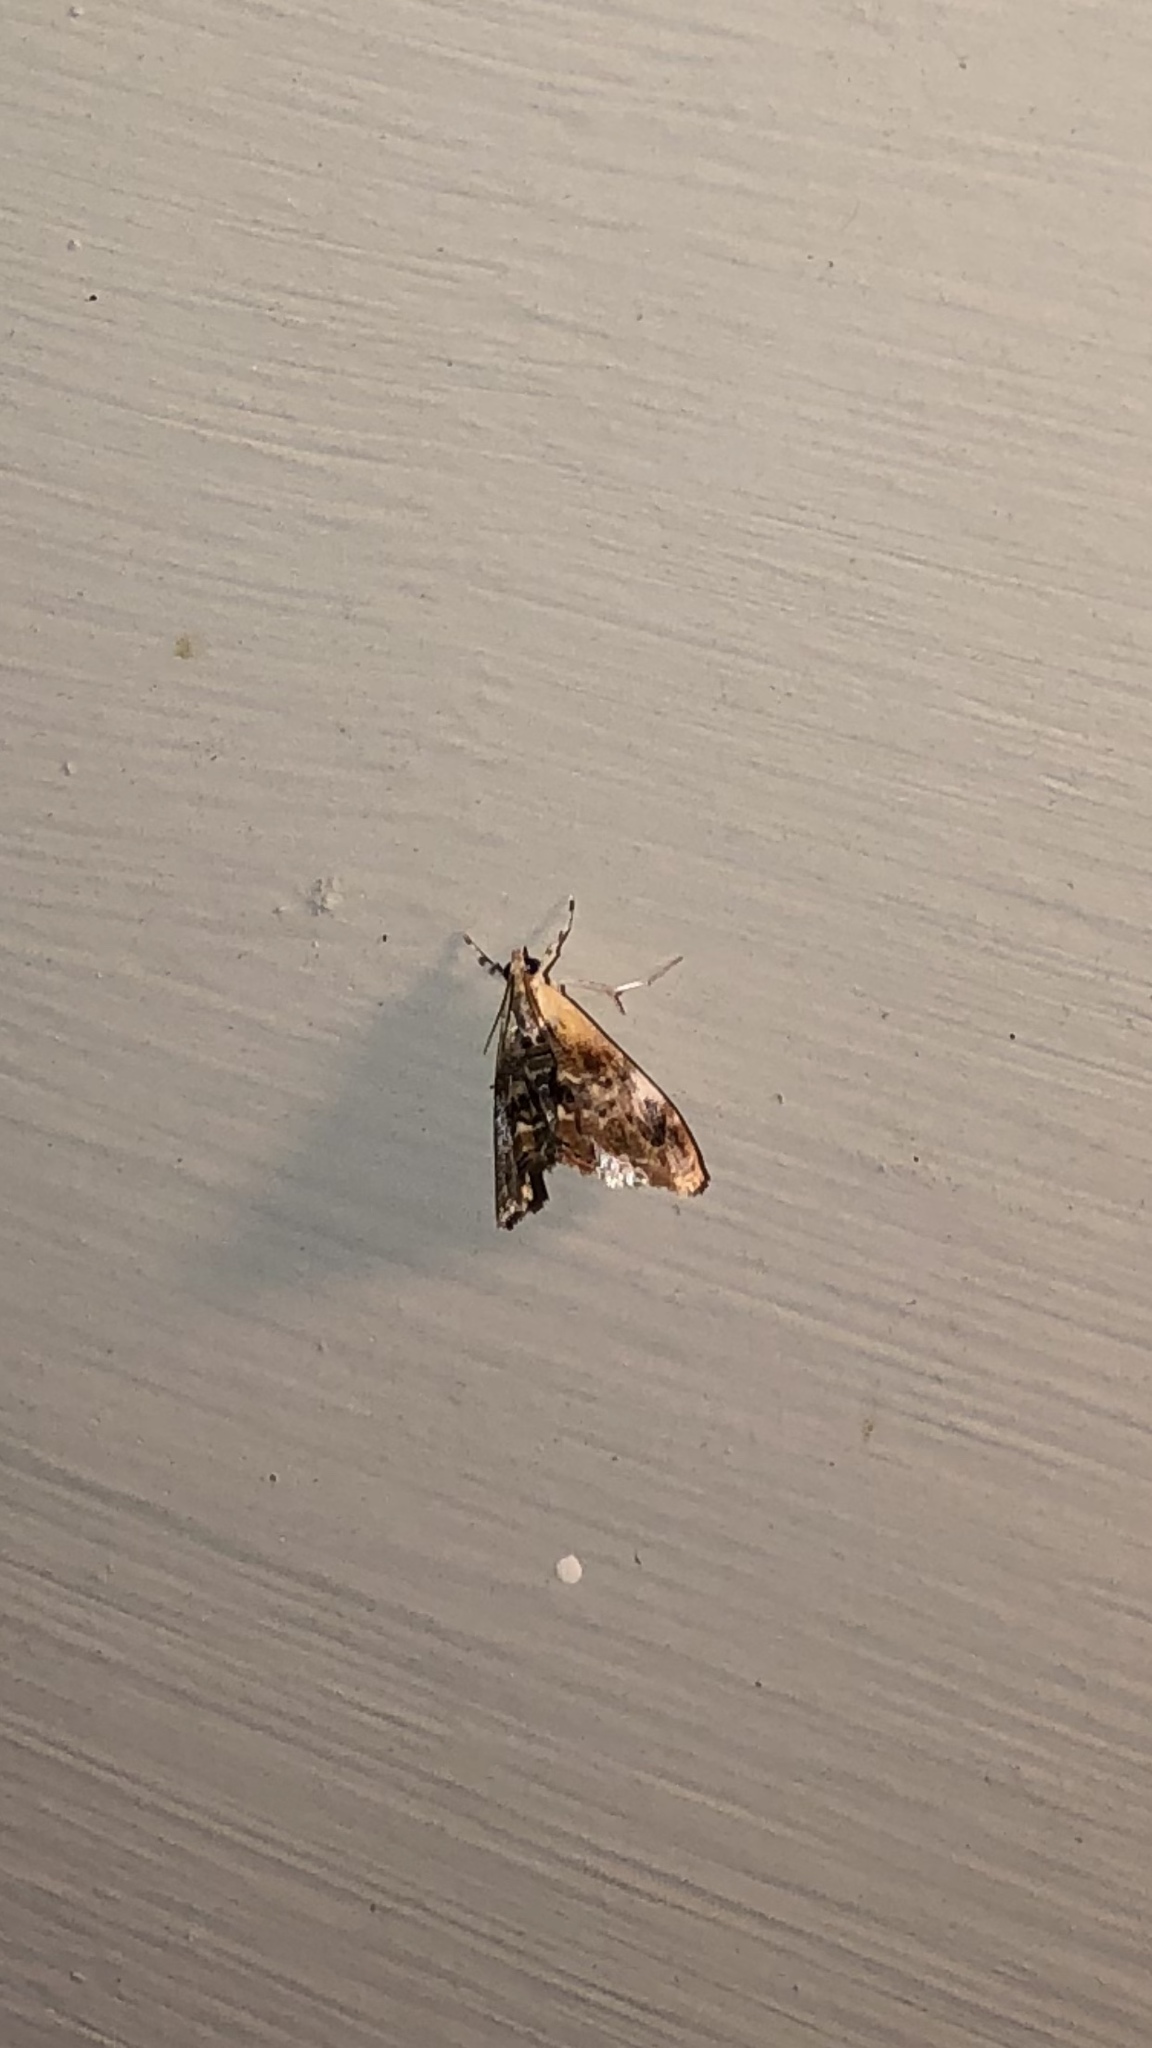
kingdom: Animalia
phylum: Arthropoda
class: Insecta
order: Lepidoptera
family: Crambidae
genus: Dicymolomia
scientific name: Dicymolomia julianalis
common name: Julia's dicymolomia moth
